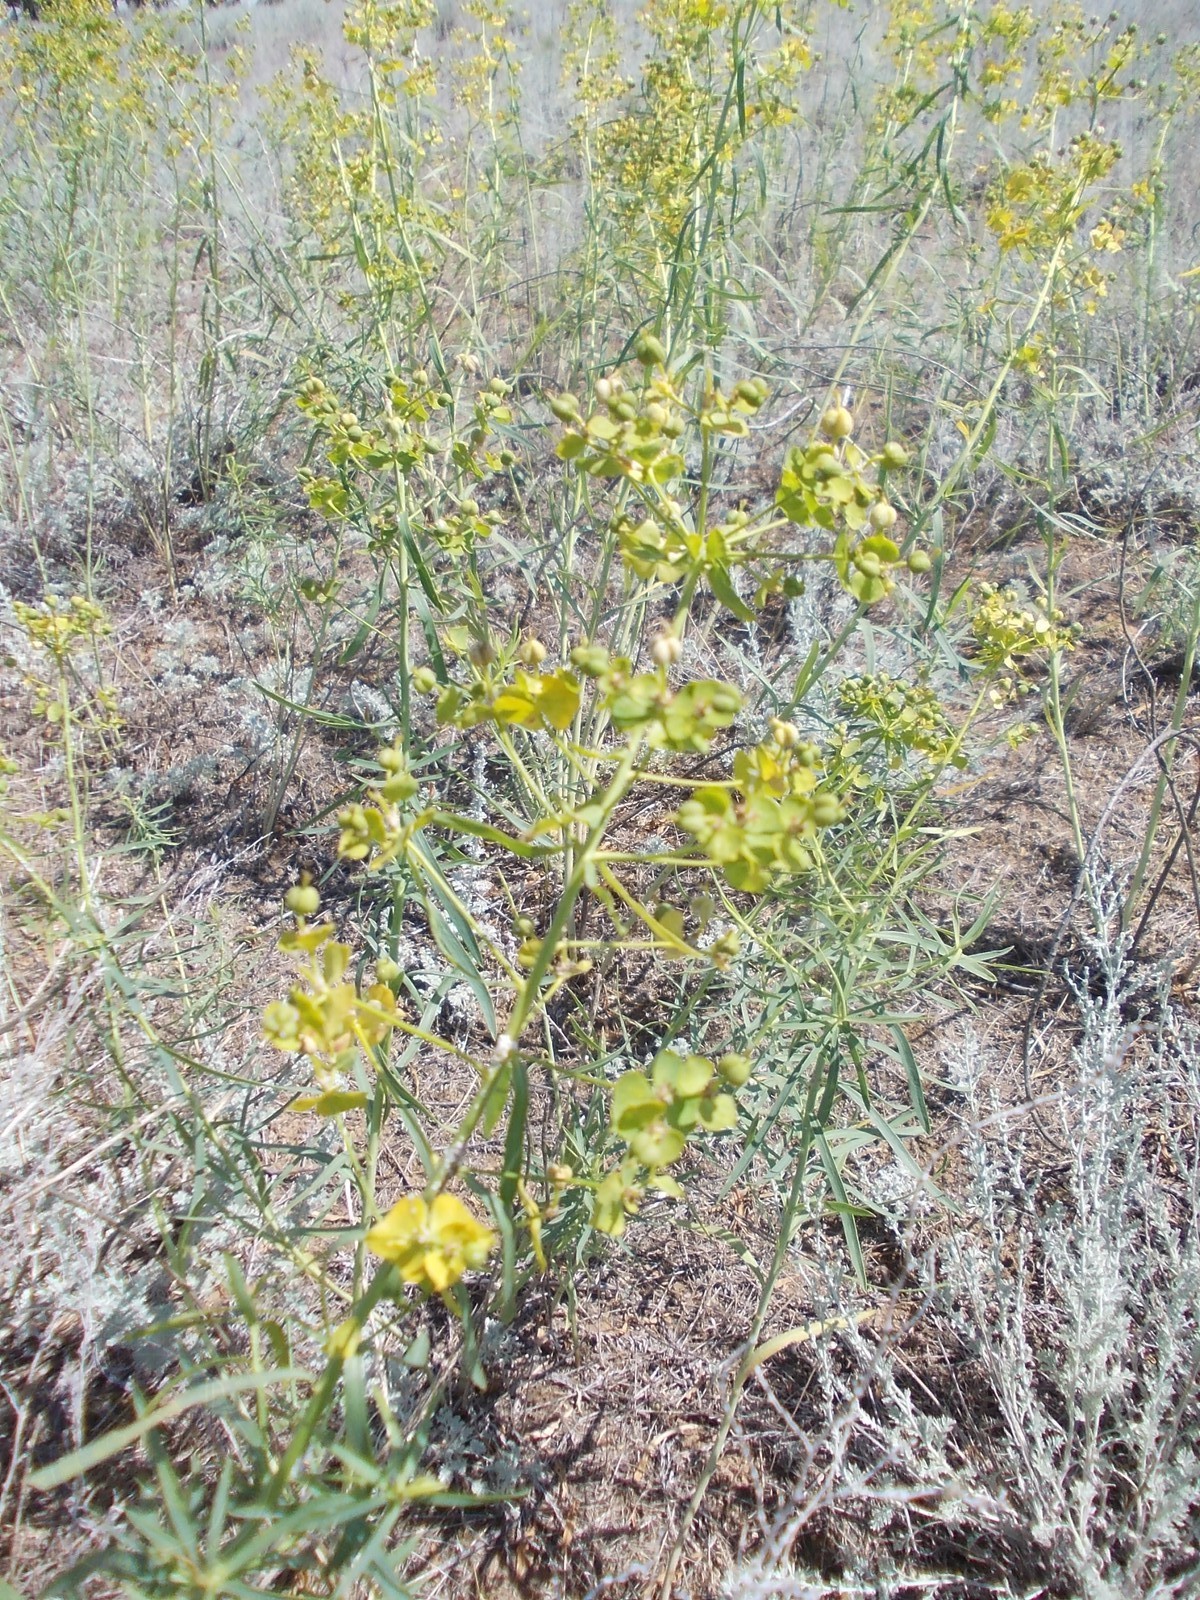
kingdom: Plantae
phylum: Tracheophyta
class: Magnoliopsida
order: Malpighiales
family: Euphorbiaceae
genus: Euphorbia
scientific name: Euphorbia seguieriana
